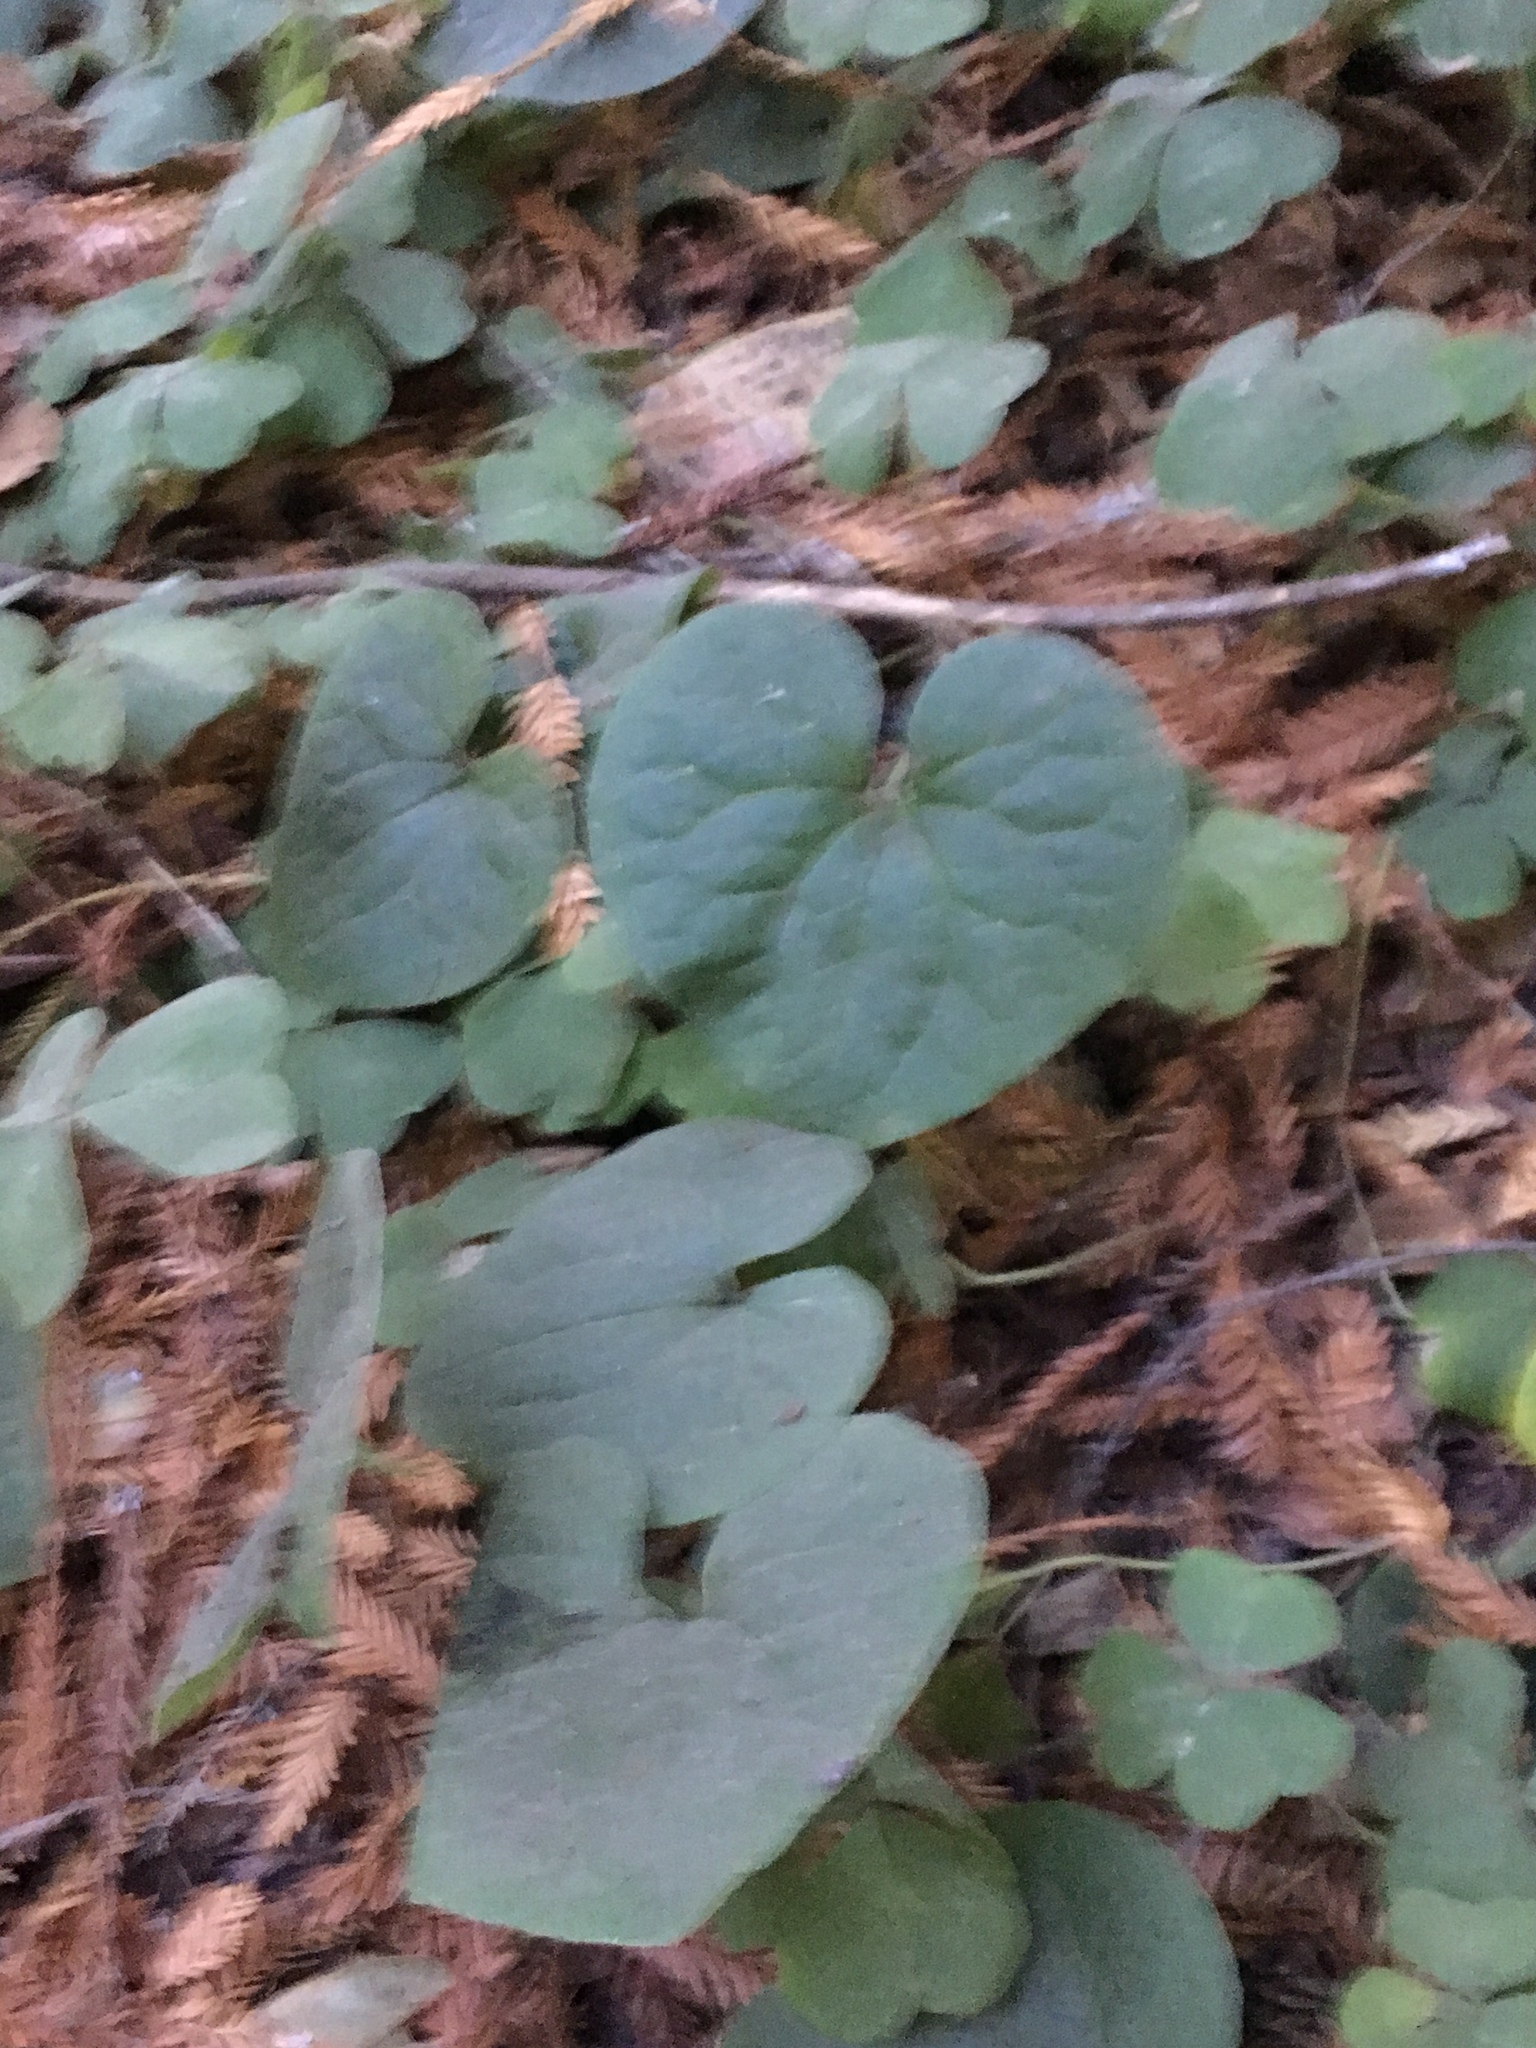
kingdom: Plantae
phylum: Tracheophyta
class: Magnoliopsida
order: Piperales
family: Aristolochiaceae
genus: Asarum
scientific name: Asarum caudatum
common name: Wild ginger
